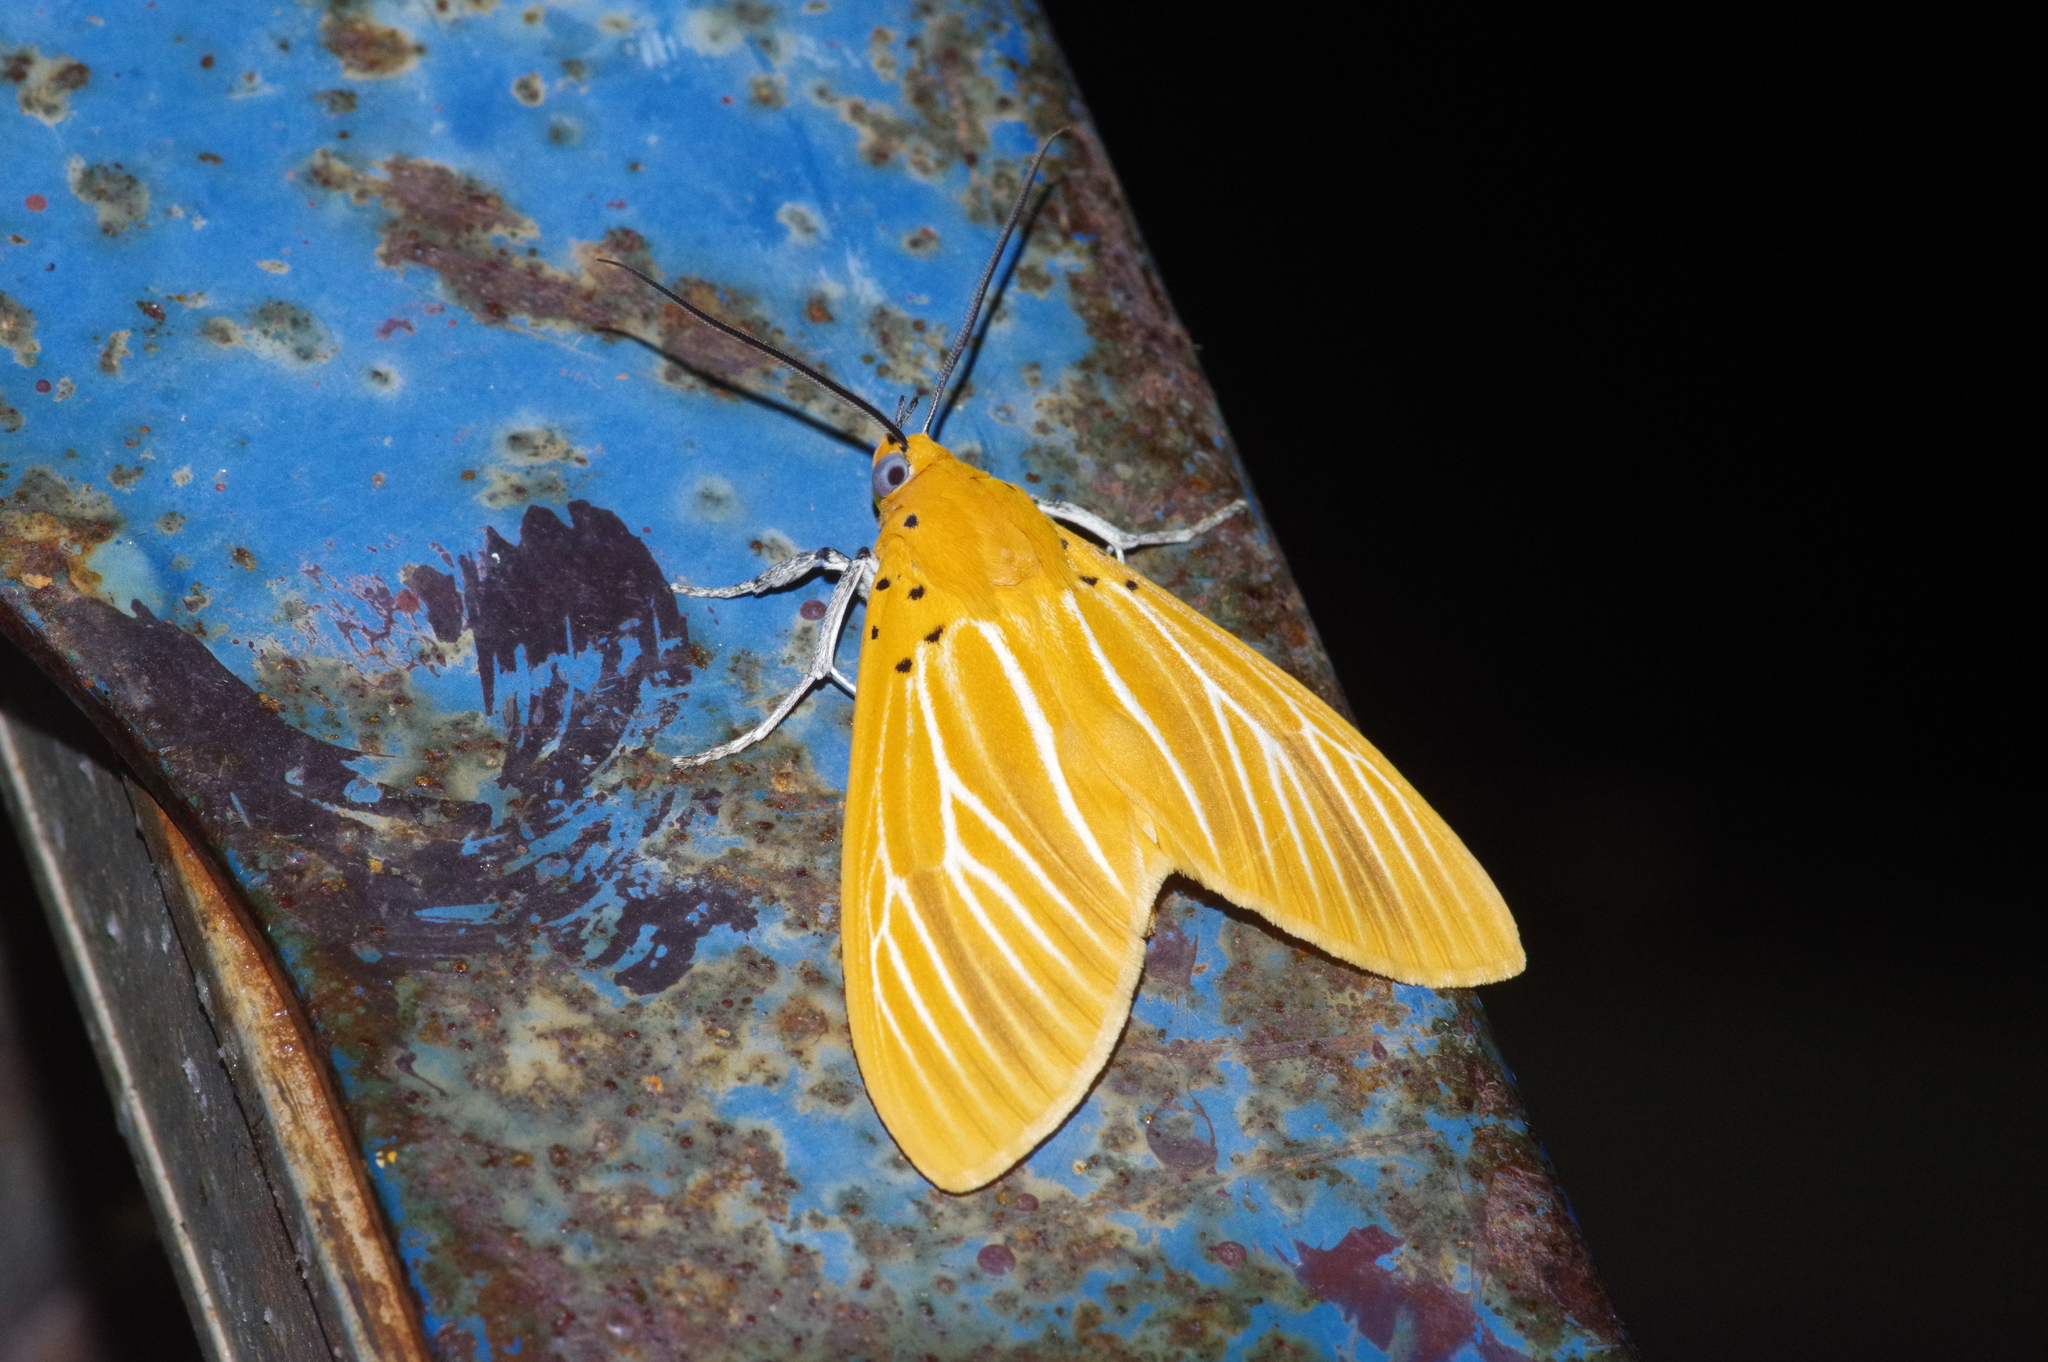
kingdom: Animalia
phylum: Arthropoda
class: Insecta
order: Lepidoptera
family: Erebidae
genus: Asota
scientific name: Asota egens
